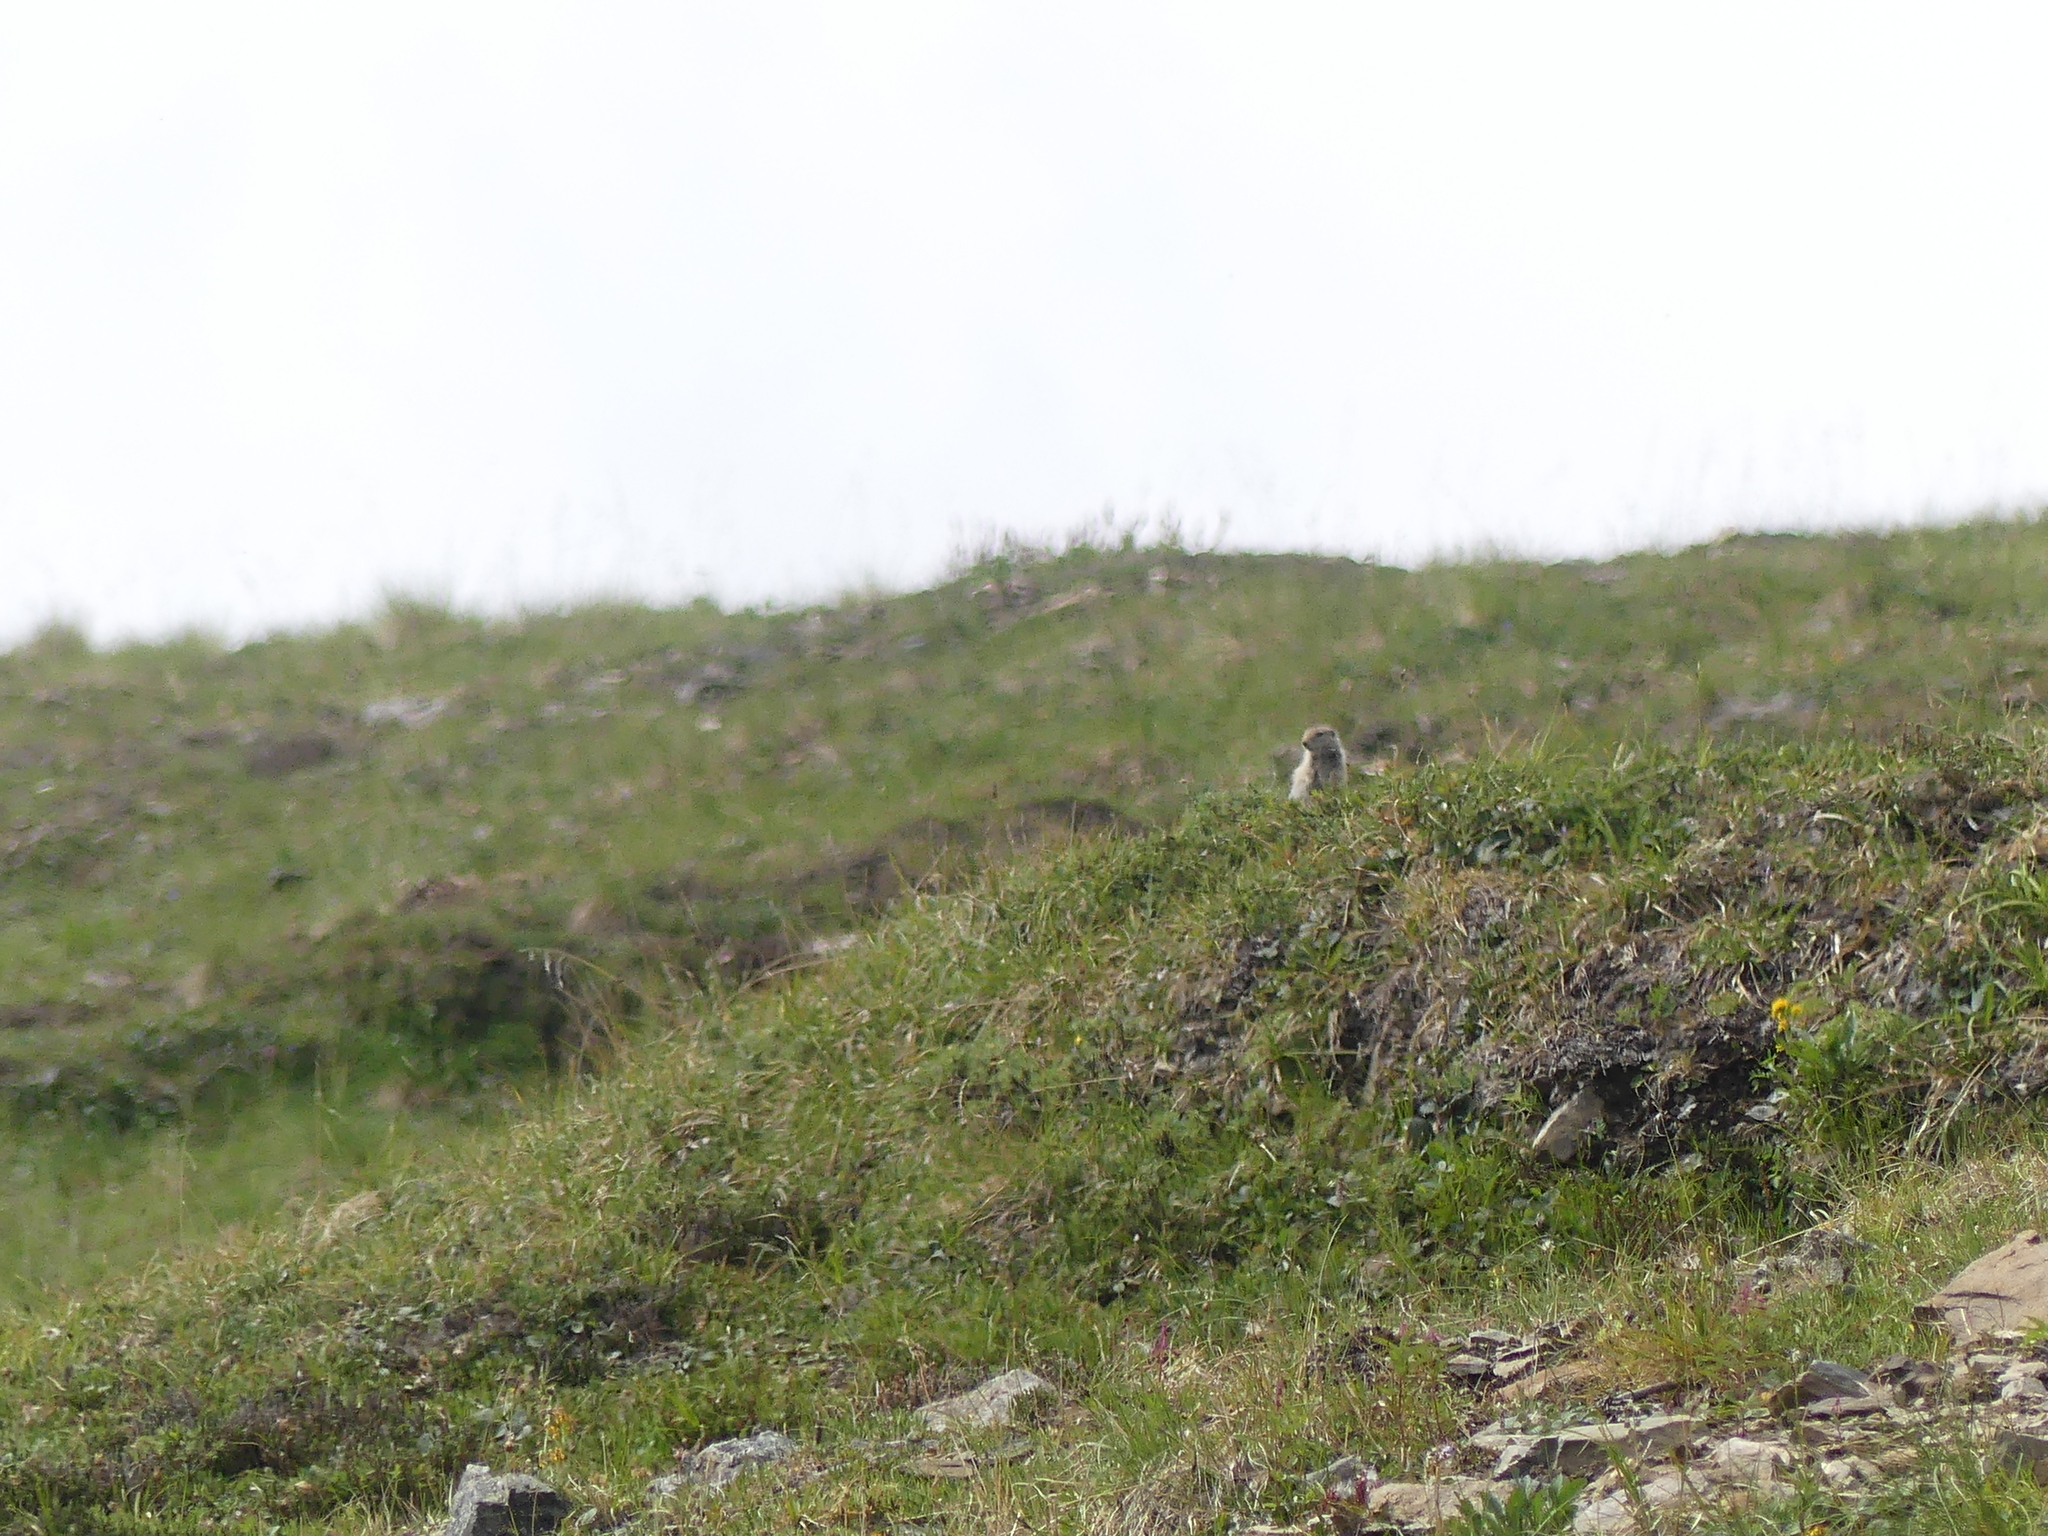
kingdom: Animalia
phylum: Chordata
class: Mammalia
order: Rodentia
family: Sciuridae
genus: Urocitellus
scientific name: Urocitellus parryii
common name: Arctic ground squirrel
